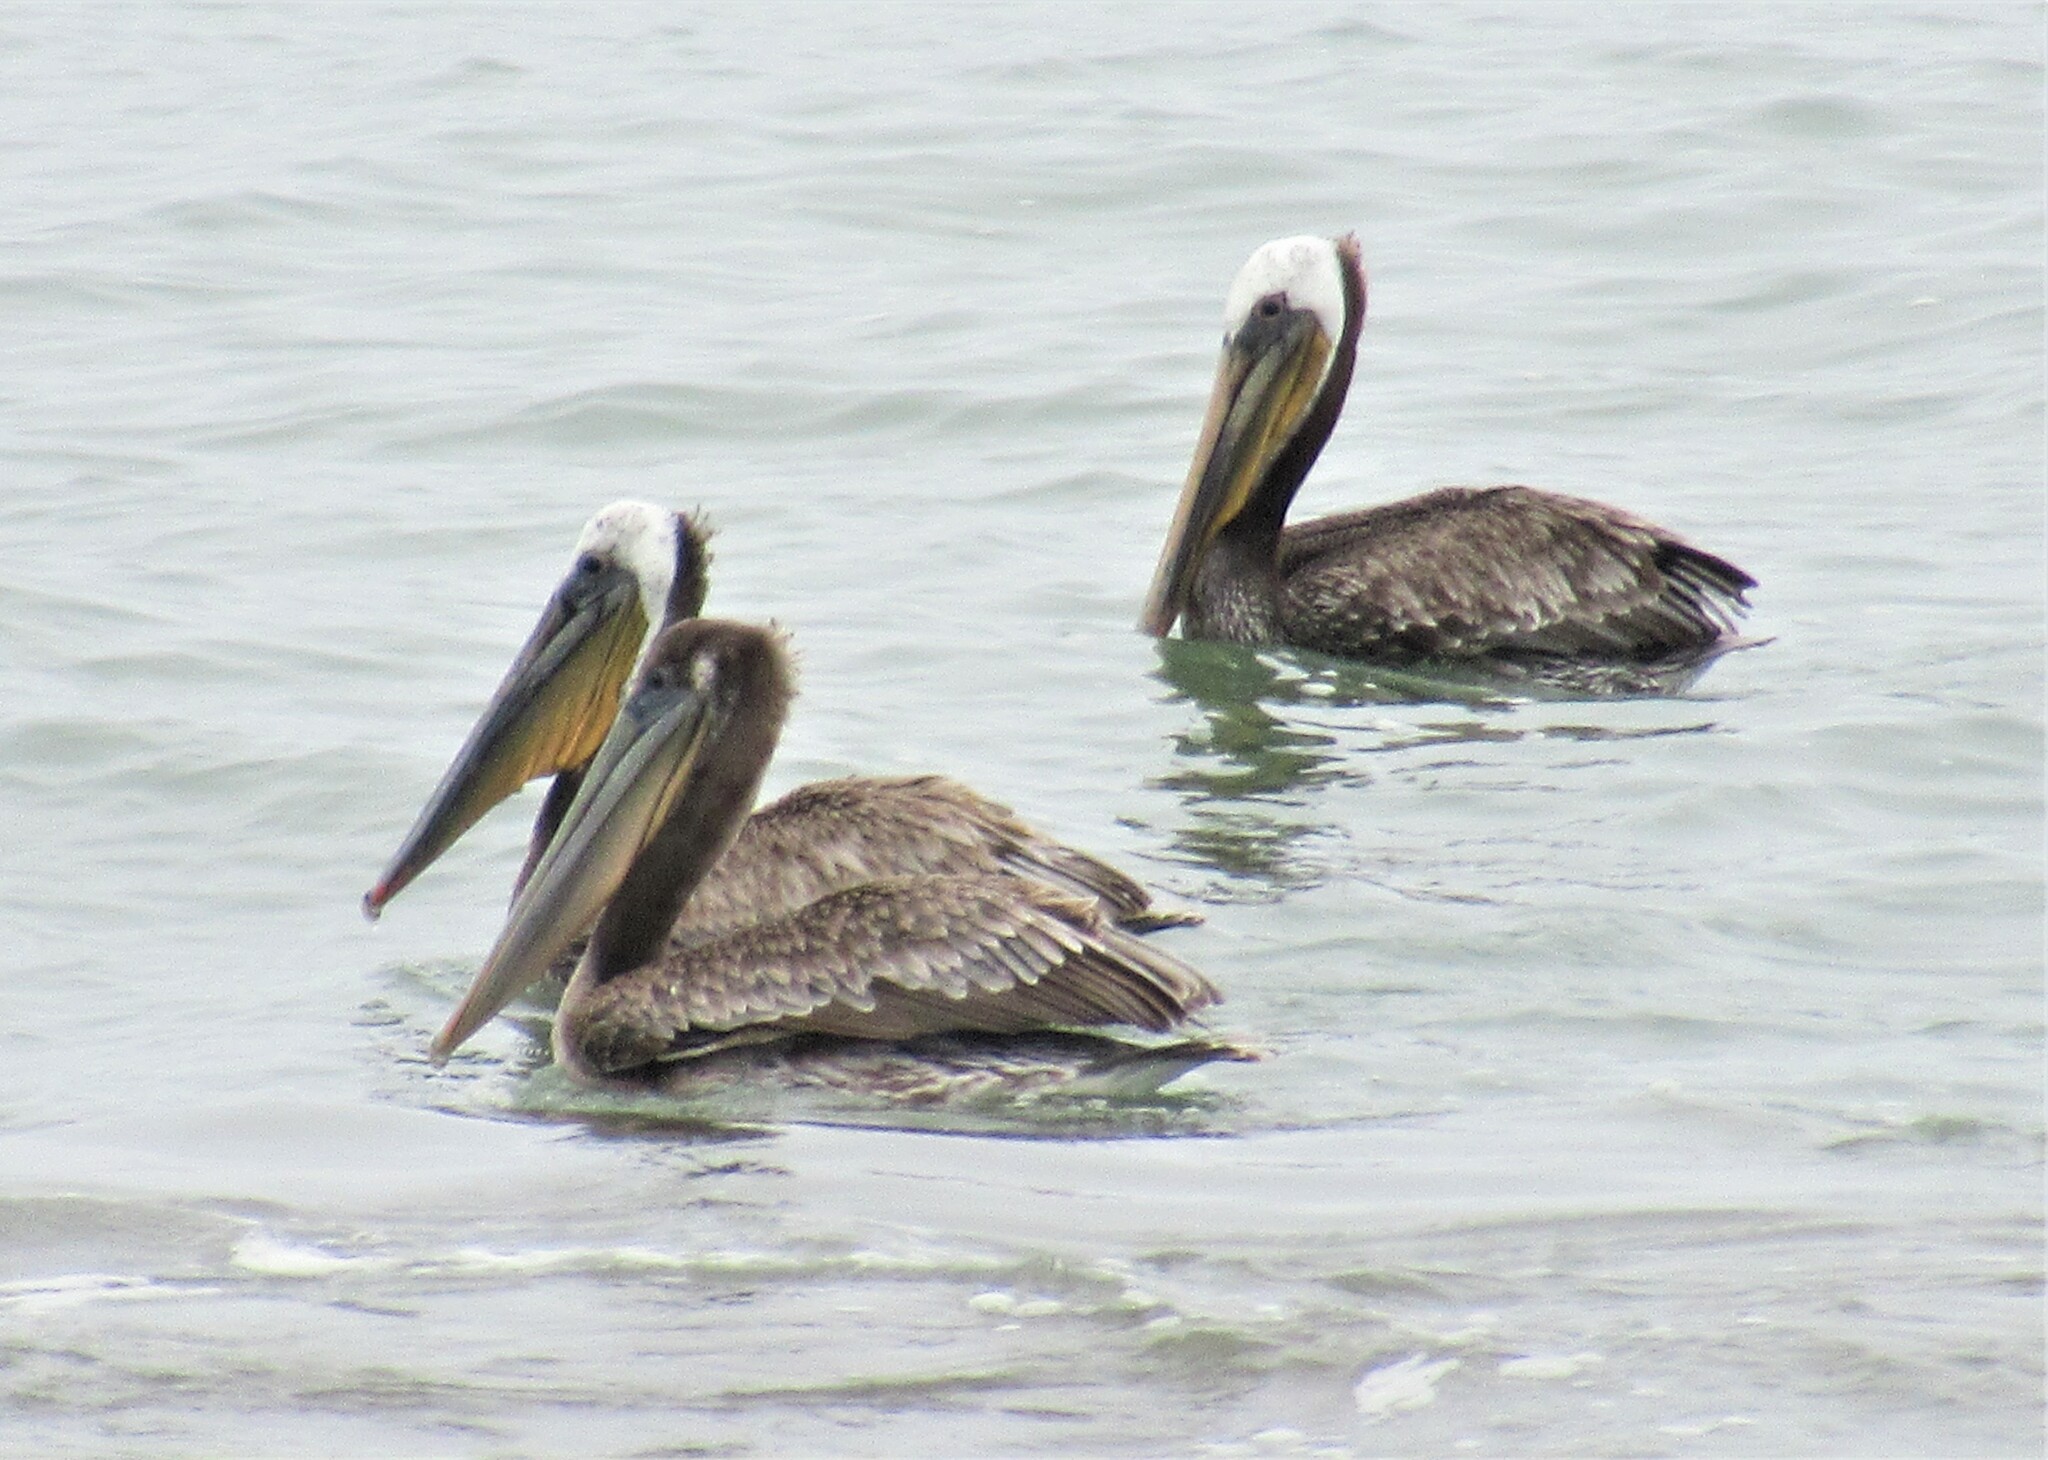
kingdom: Animalia
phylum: Chordata
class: Aves
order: Pelecaniformes
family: Pelecanidae
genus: Pelecanus
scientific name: Pelecanus occidentalis
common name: Brown pelican
